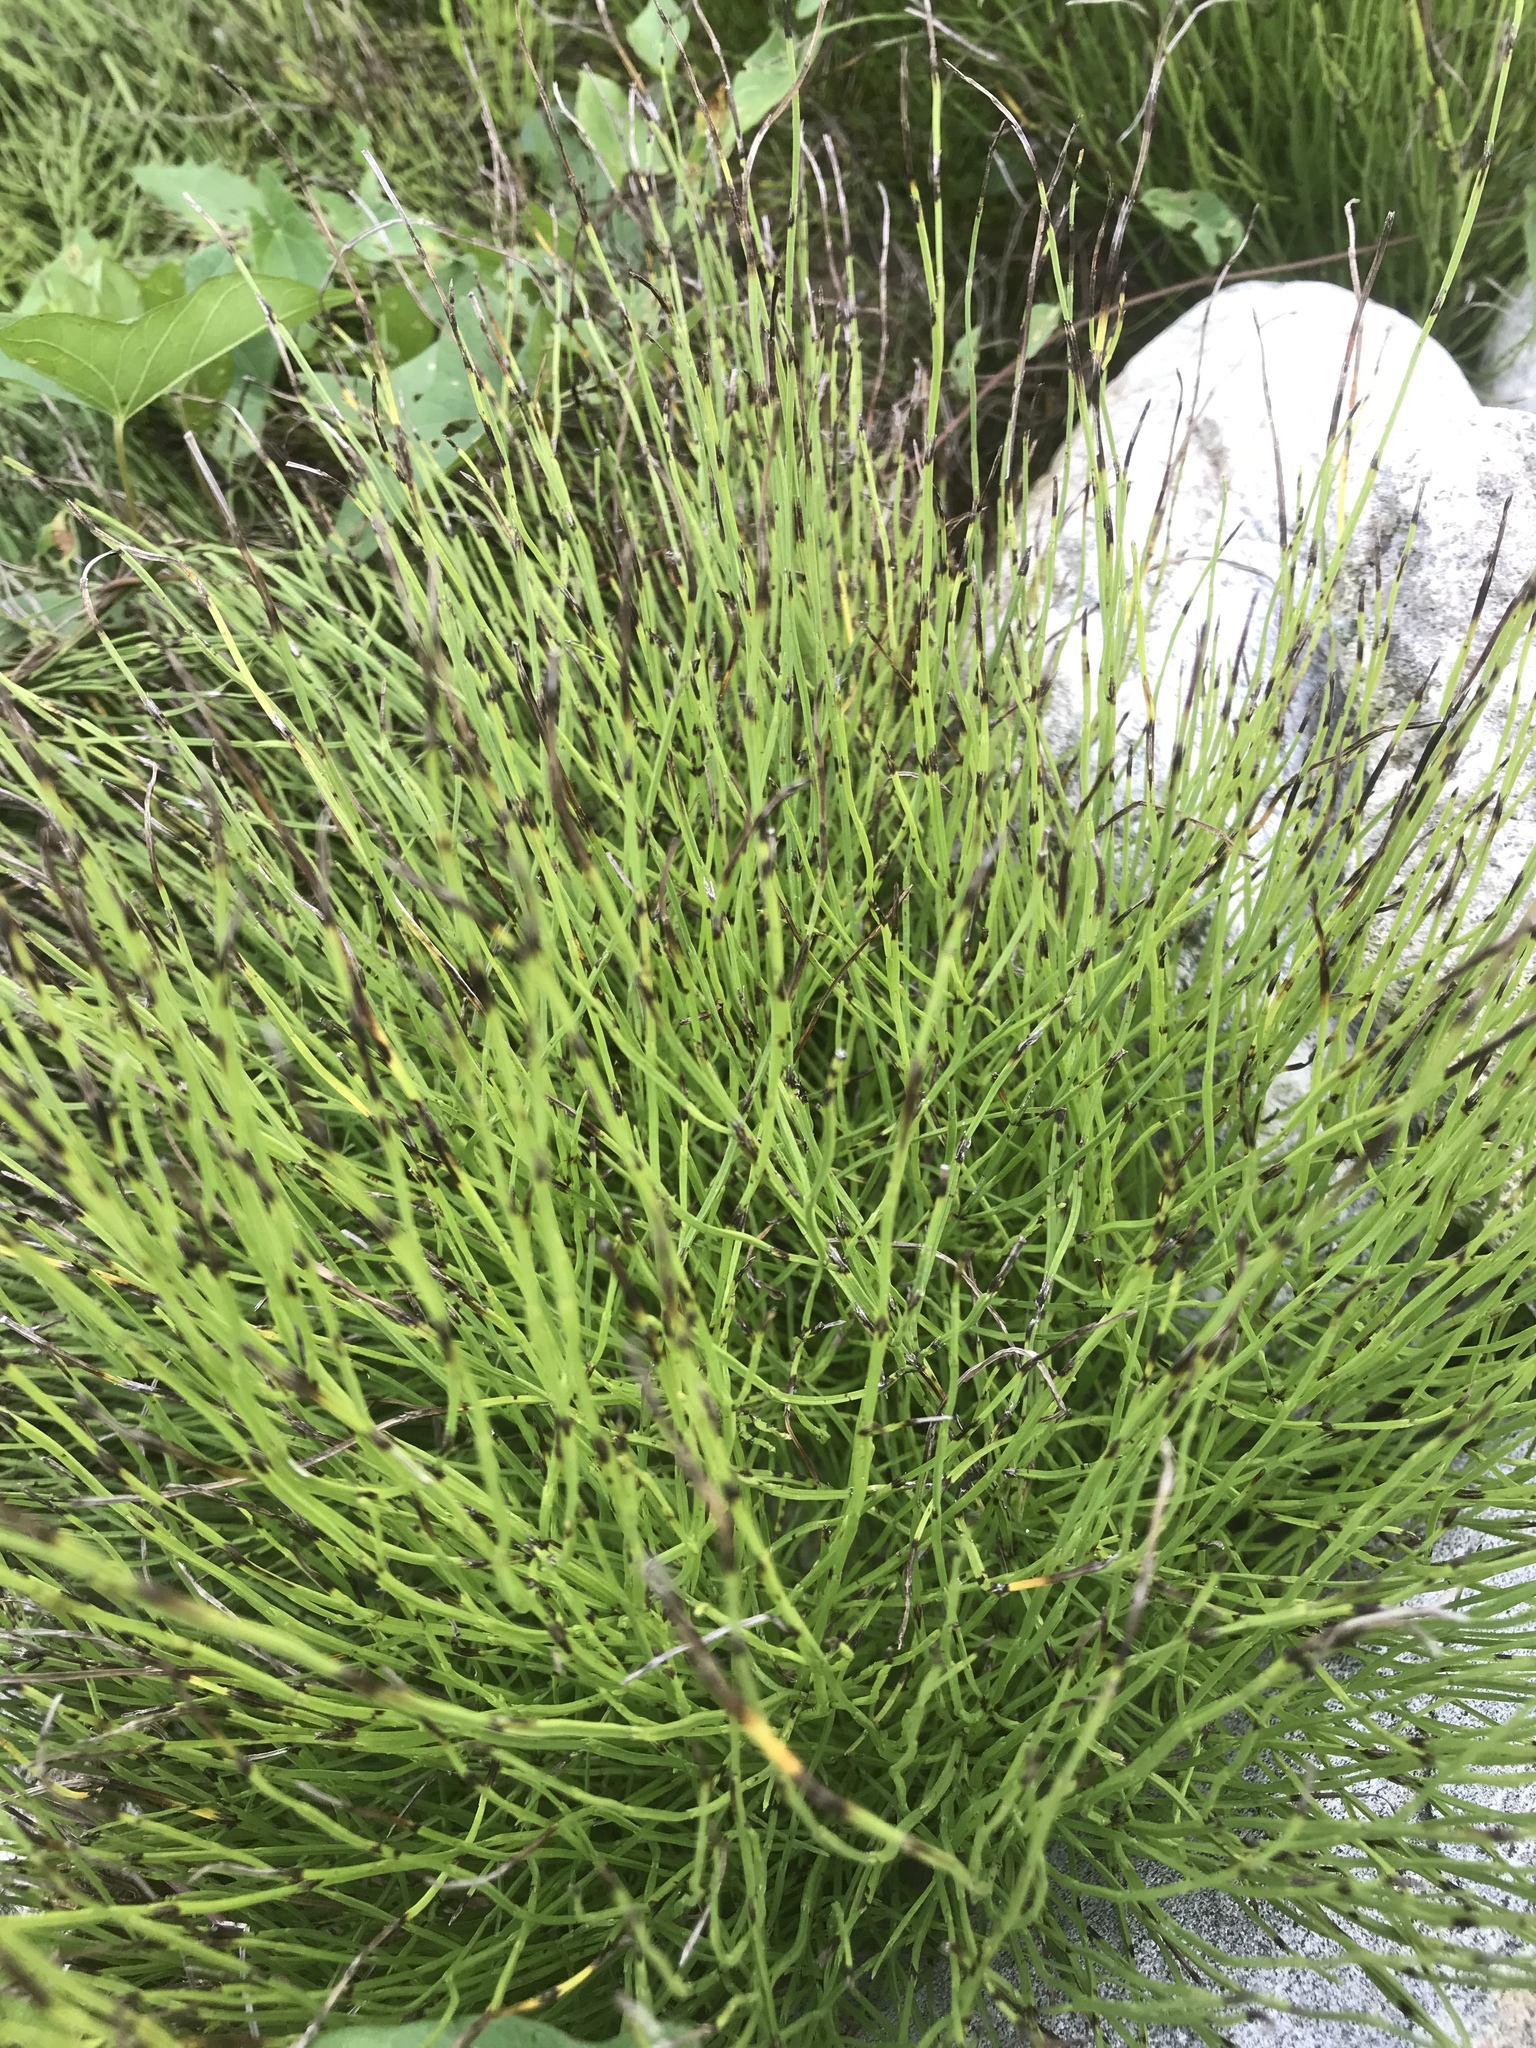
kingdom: Plantae
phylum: Tracheophyta
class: Polypodiopsida
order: Equisetales
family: Equisetaceae
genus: Equisetum
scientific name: Equisetum arvense
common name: Field horsetail
